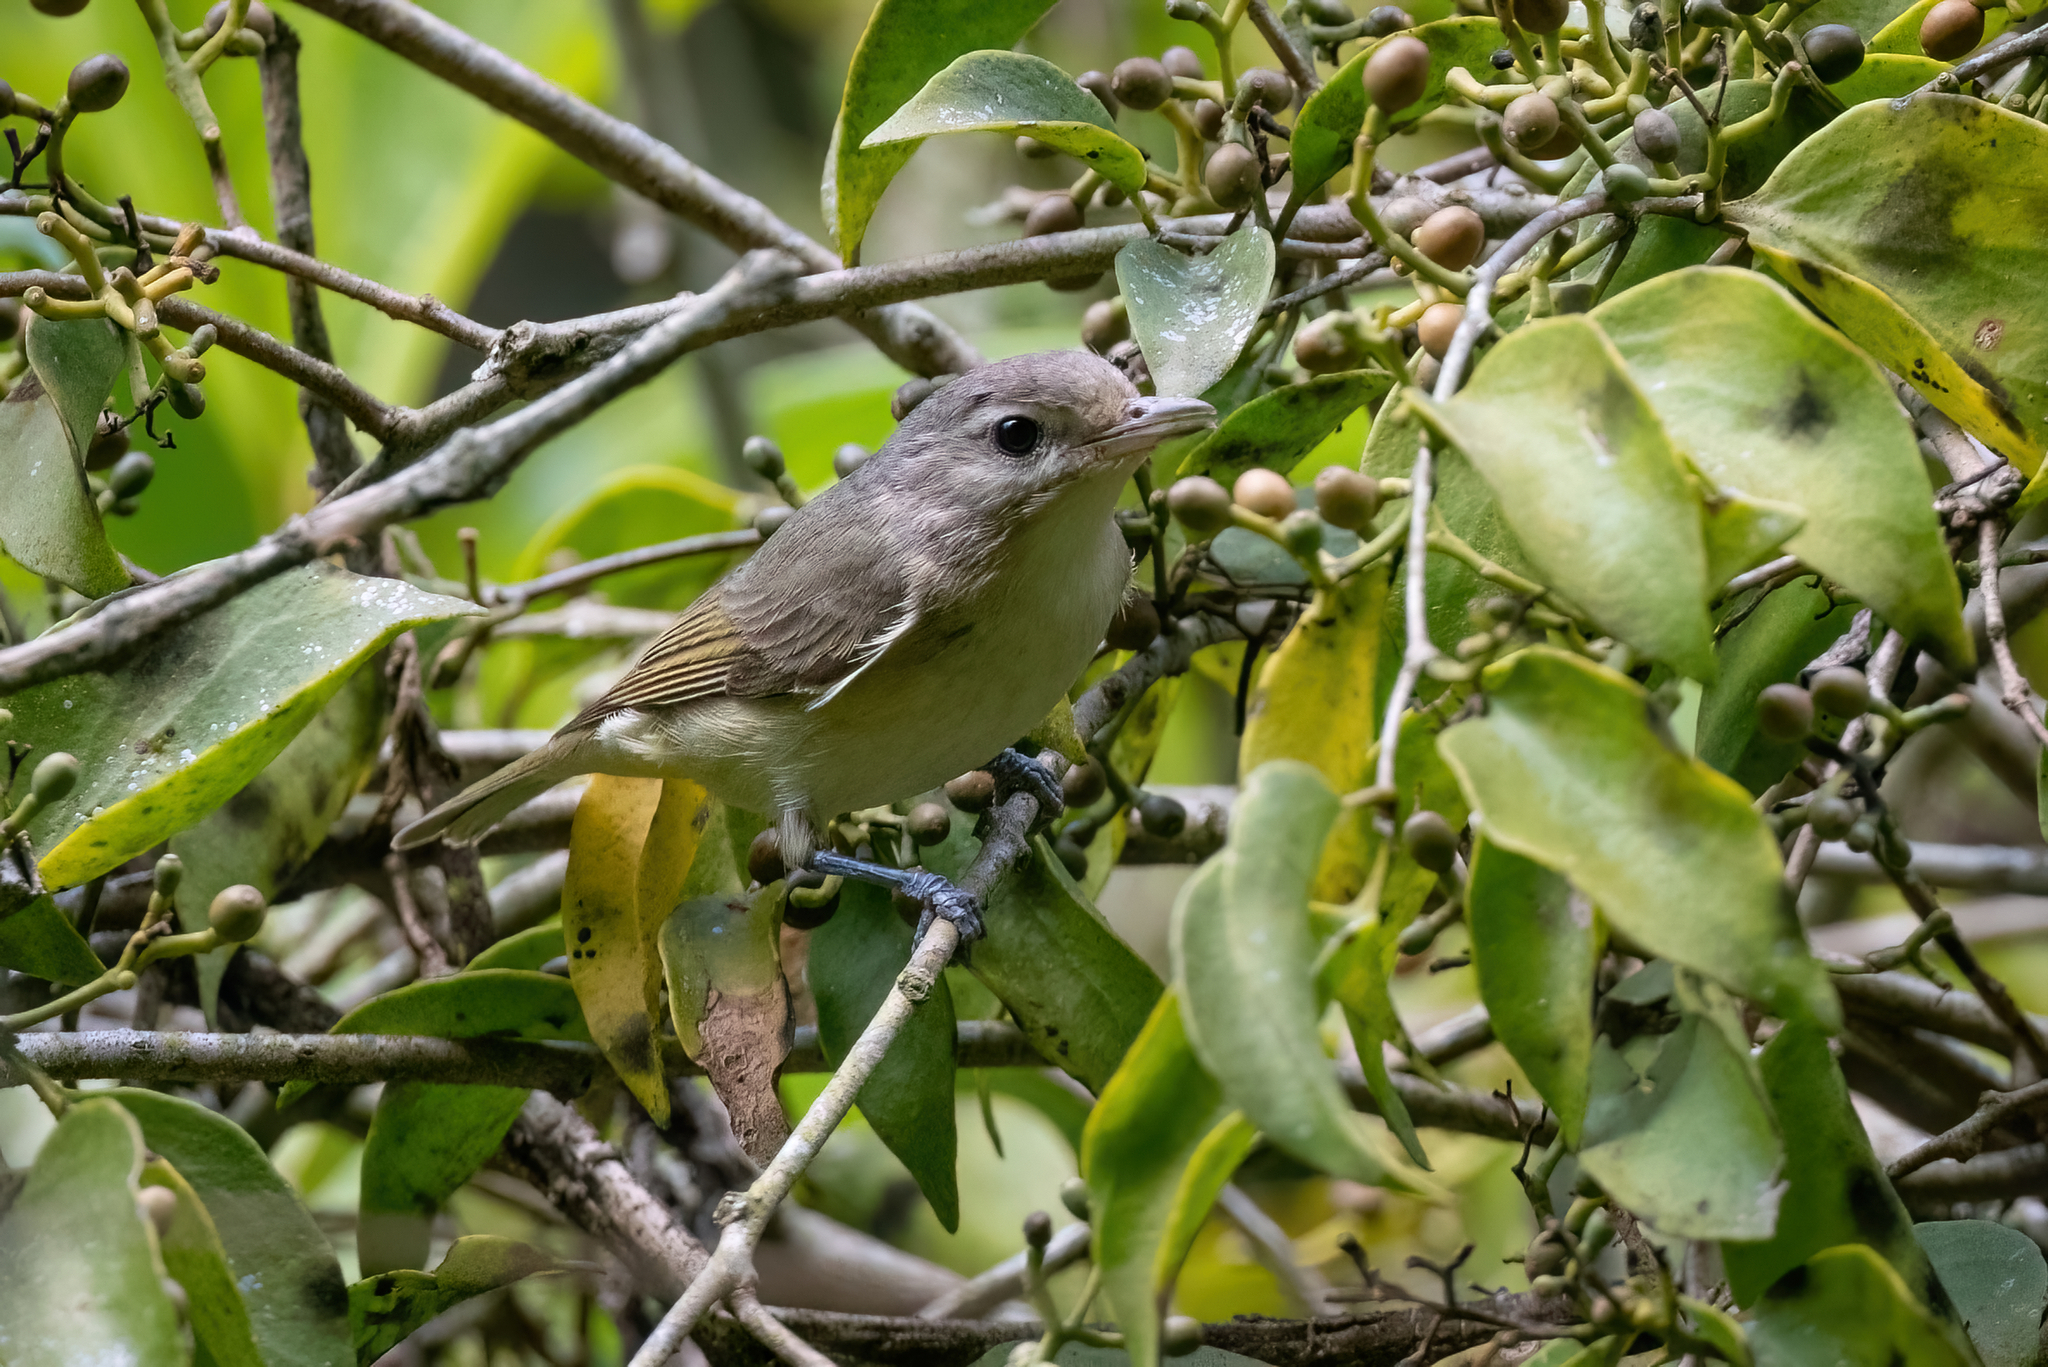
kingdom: Animalia
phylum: Chordata
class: Aves
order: Passeriformes
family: Vireonidae
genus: Vireo
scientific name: Vireo gilvus
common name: Warbling vireo
